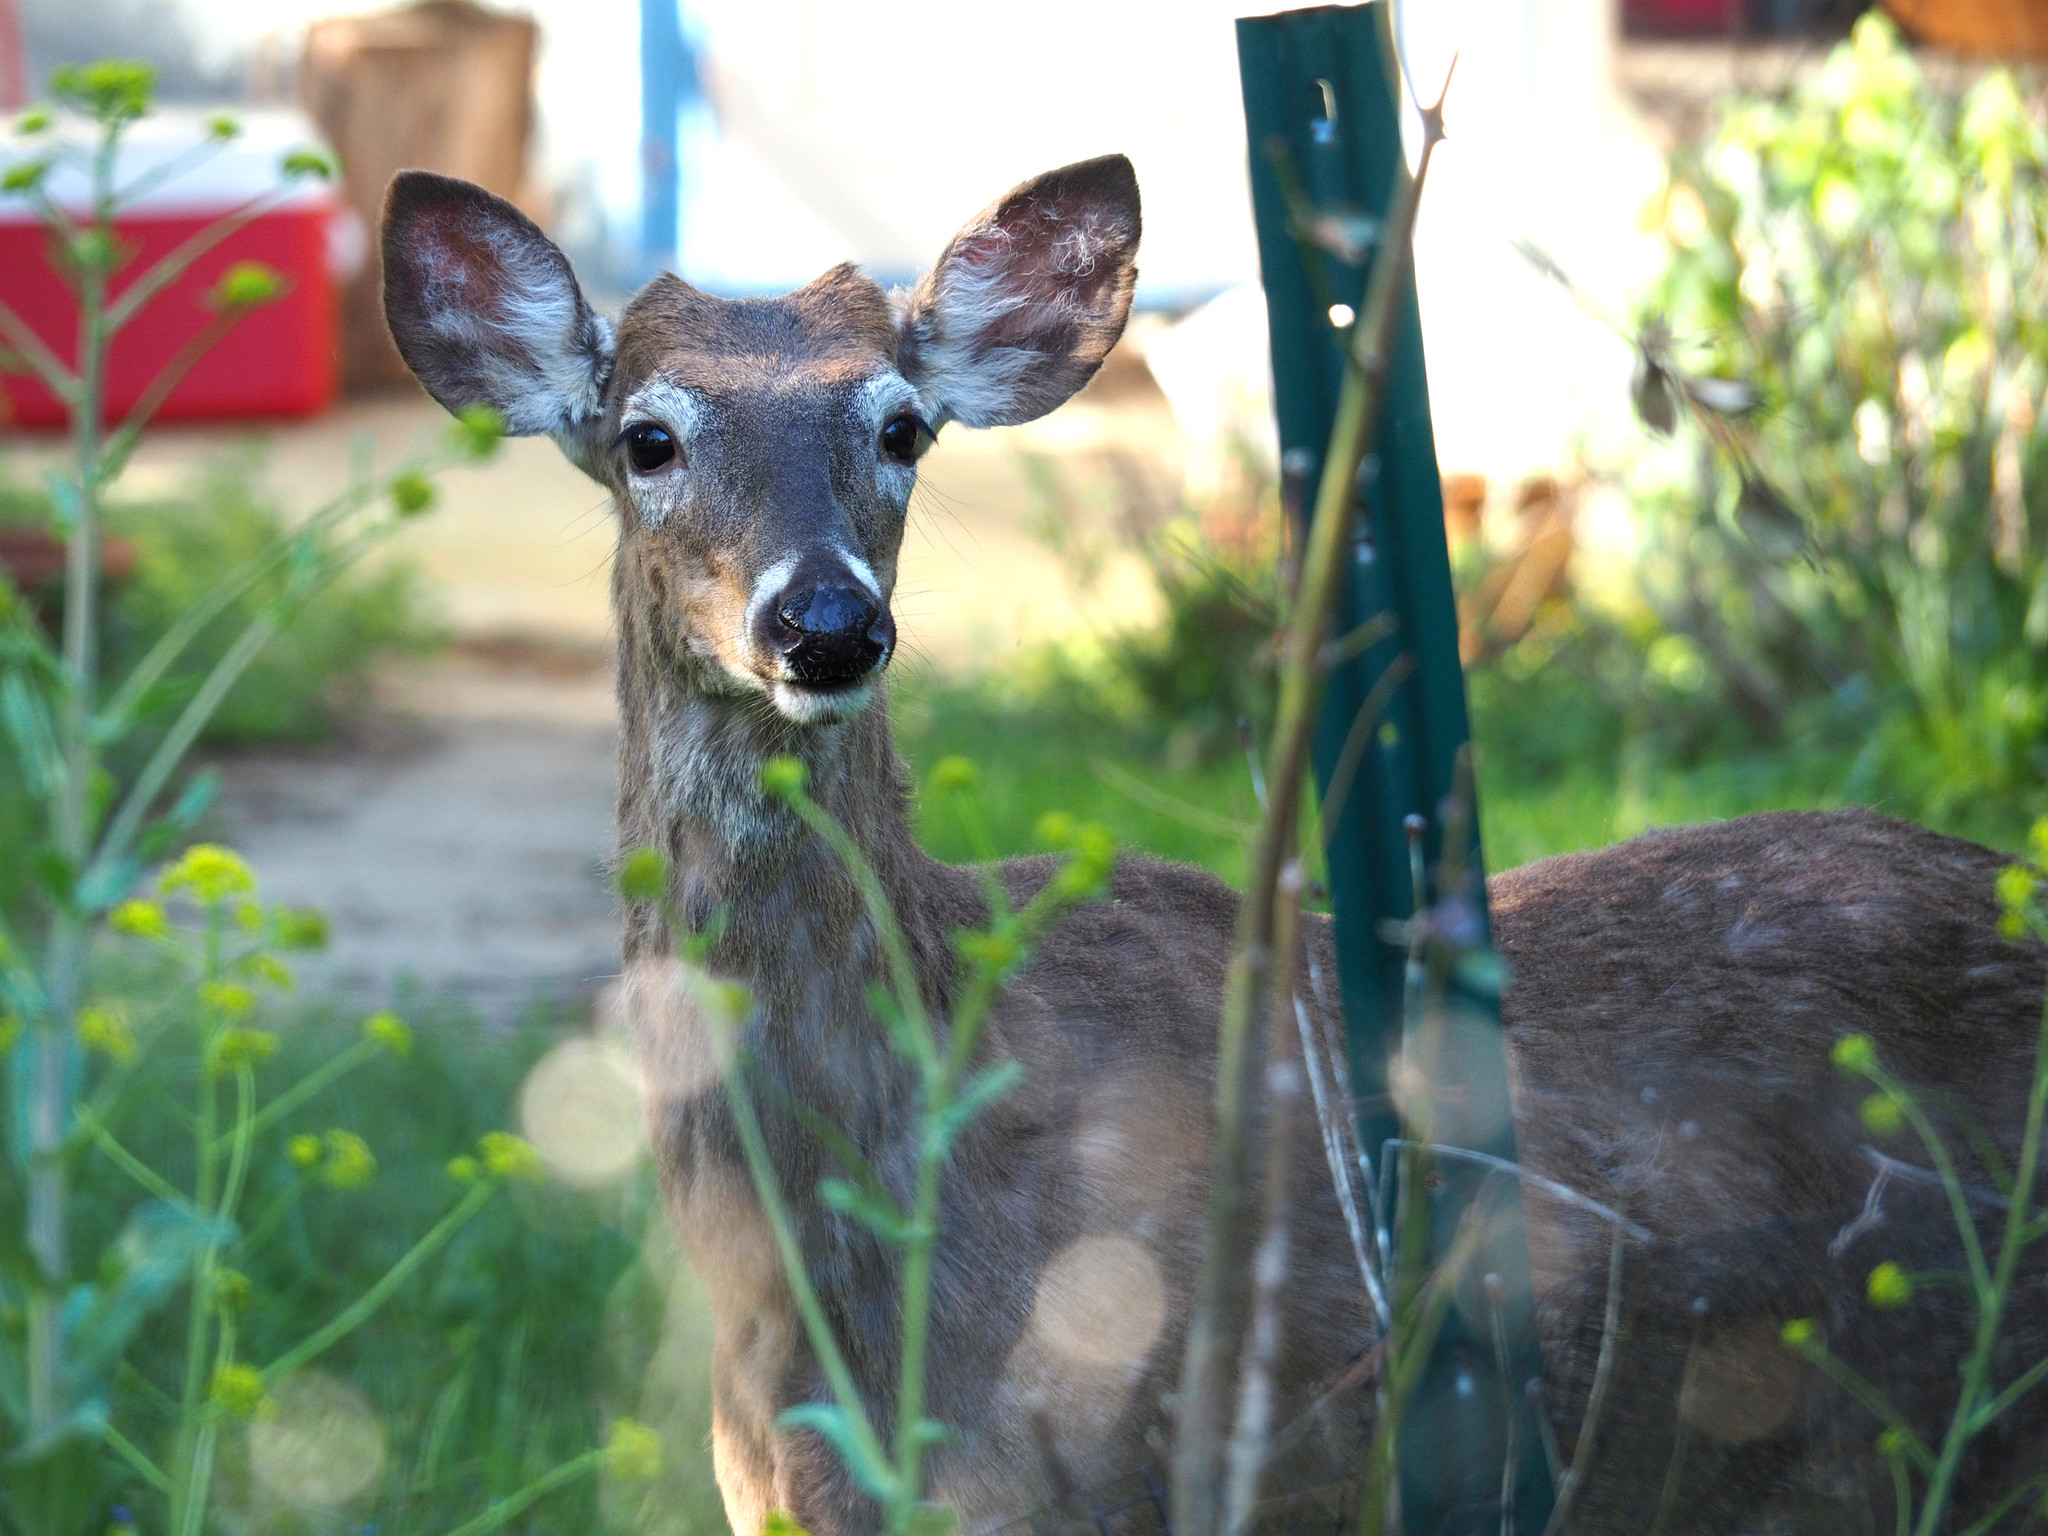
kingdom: Animalia
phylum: Chordata
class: Mammalia
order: Artiodactyla
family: Cervidae
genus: Odocoileus
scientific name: Odocoileus virginianus
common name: White-tailed deer
